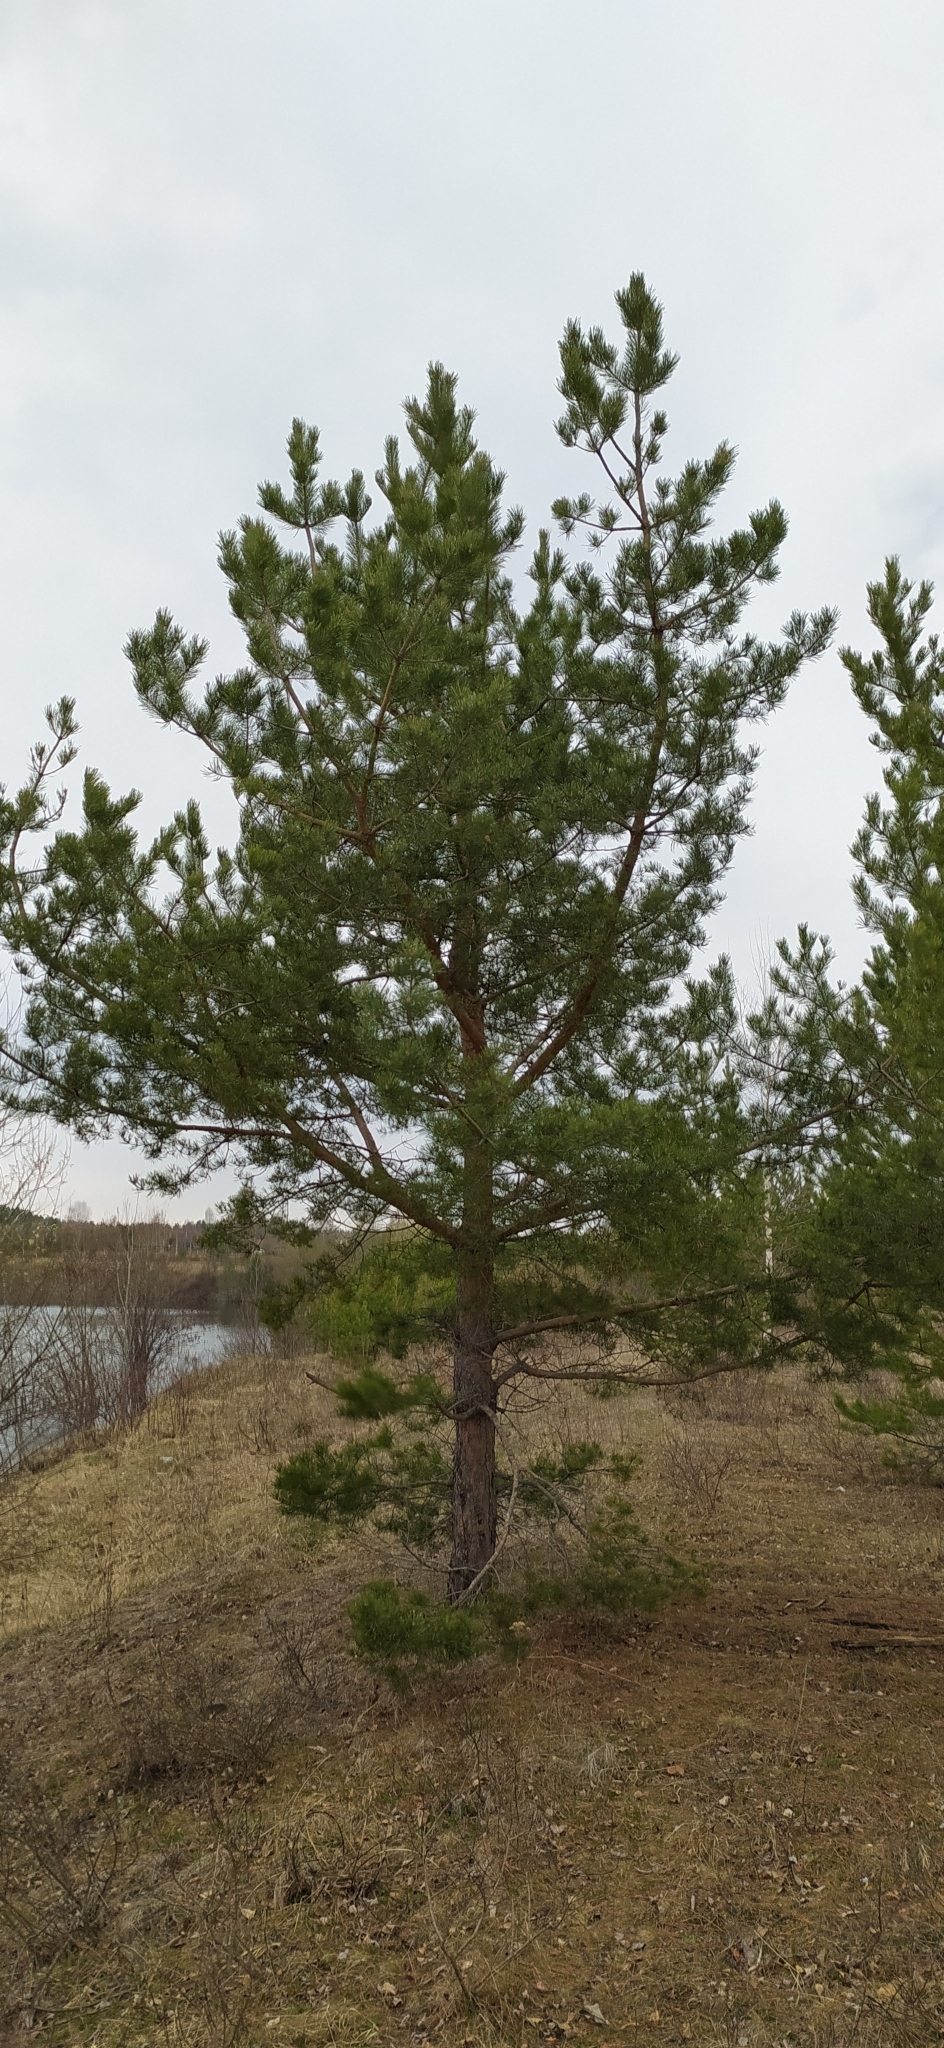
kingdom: Plantae
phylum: Tracheophyta
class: Pinopsida
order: Pinales
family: Pinaceae
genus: Pinus
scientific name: Pinus sylvestris
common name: Scots pine
